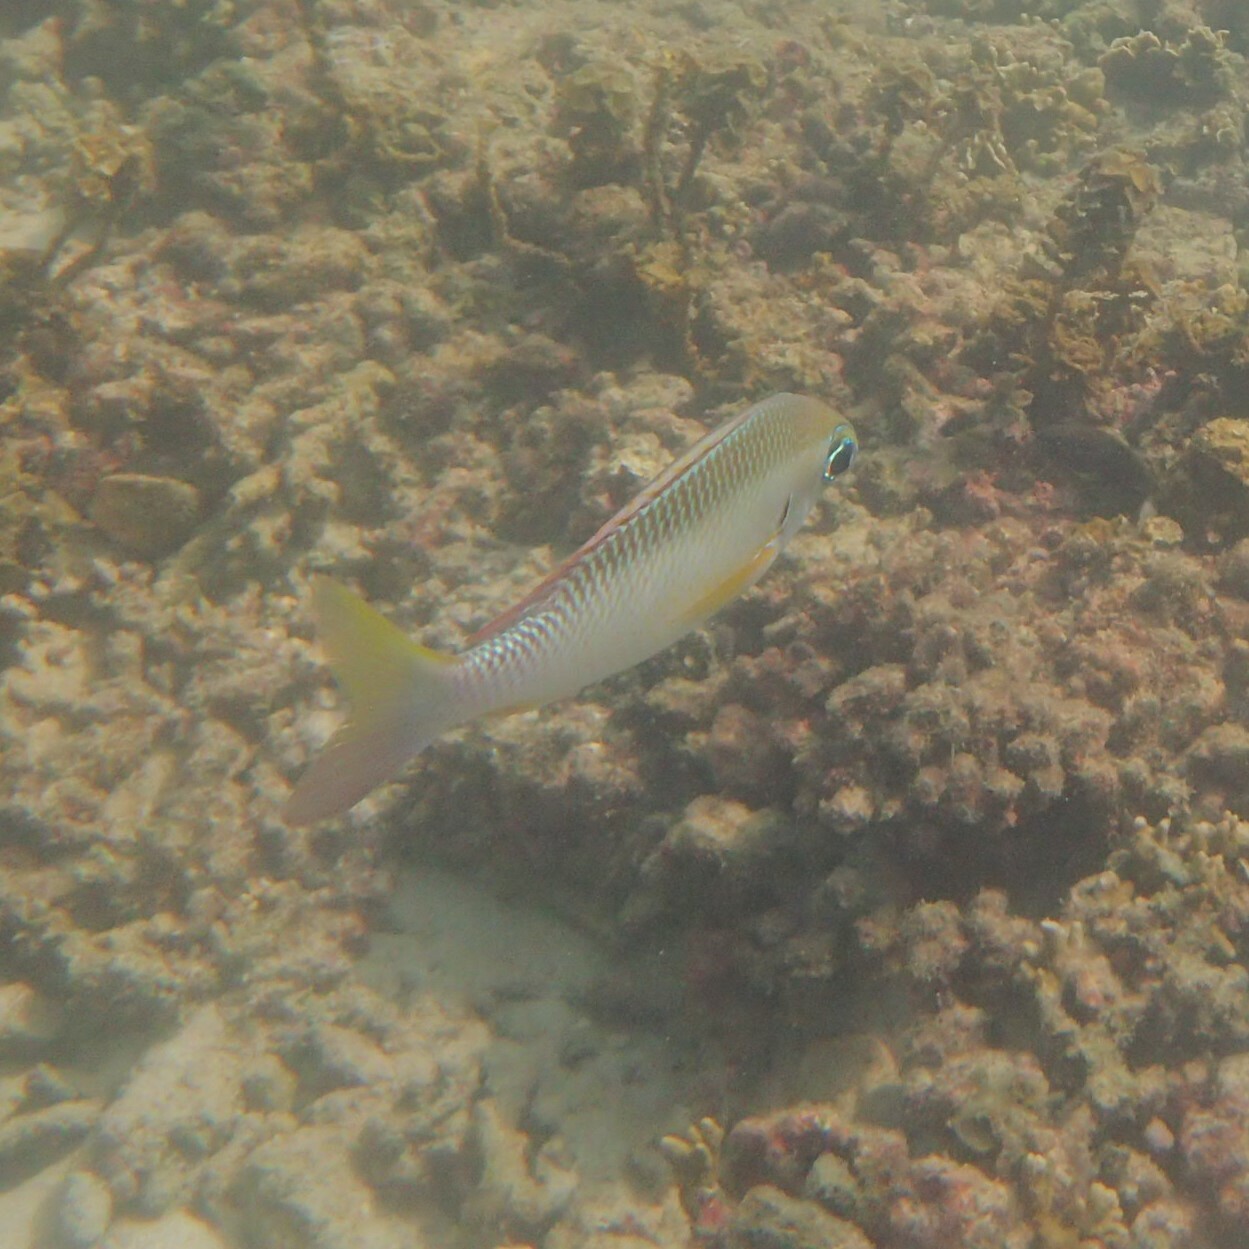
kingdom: Animalia
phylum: Chordata
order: Perciformes
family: Nemipteridae
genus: Scolopsis
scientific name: Scolopsis margaritifera
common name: Pearly monocle bream
